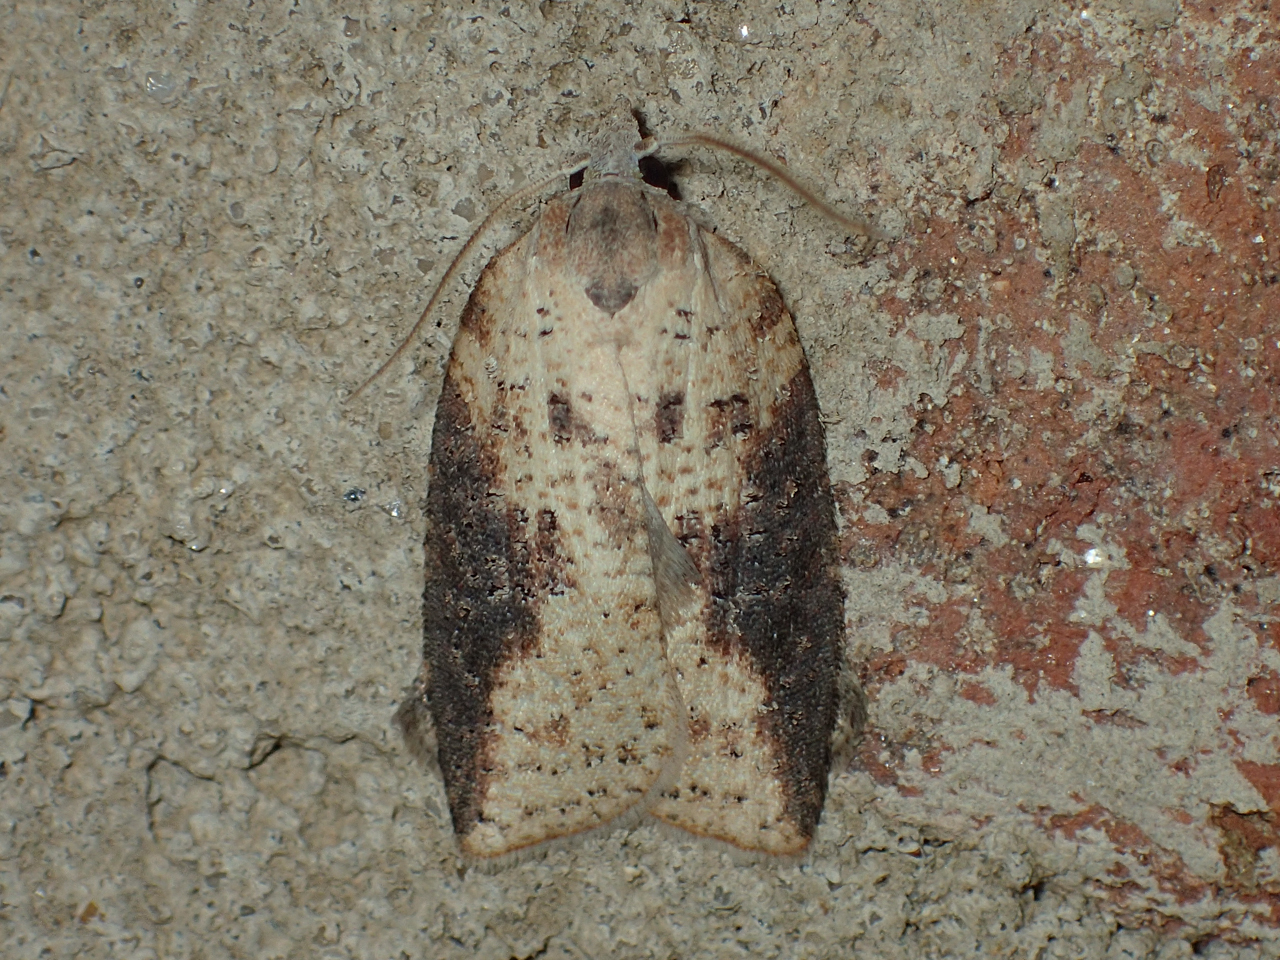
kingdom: Animalia
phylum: Arthropoda
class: Insecta
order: Lepidoptera
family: Tortricidae
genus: Amorbia
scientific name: Amorbia humerosana
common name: White-lined leafroller moth
